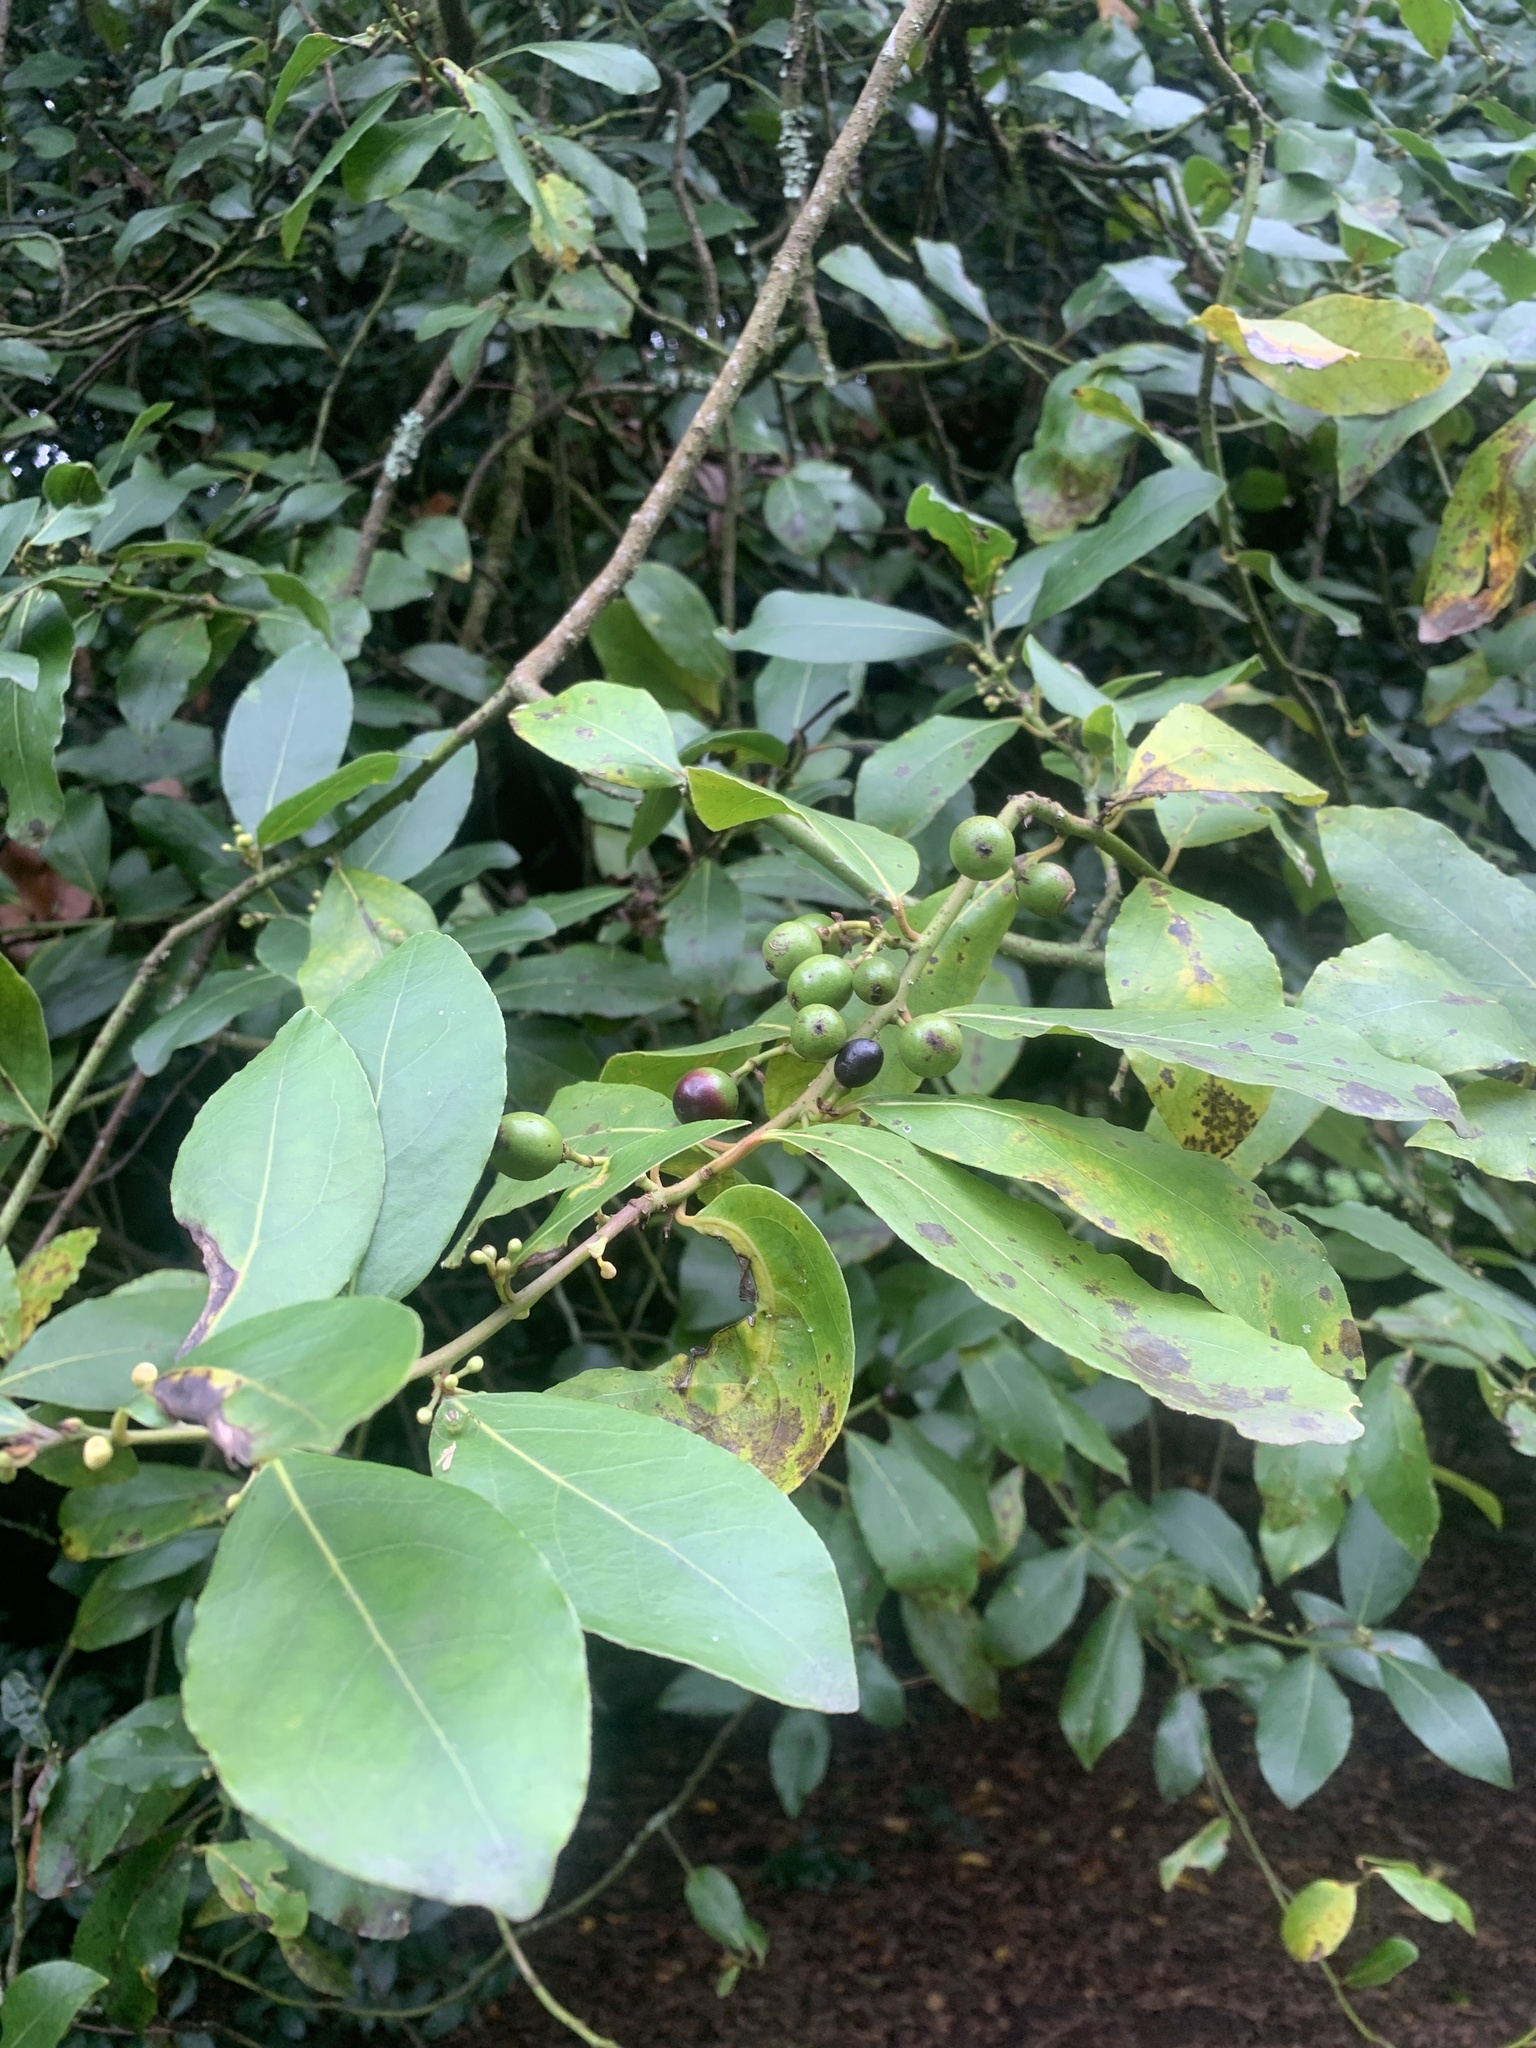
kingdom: Plantae
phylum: Tracheophyta
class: Magnoliopsida
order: Laurales
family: Lauraceae
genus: Laurus
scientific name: Laurus nobilis
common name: Bay
